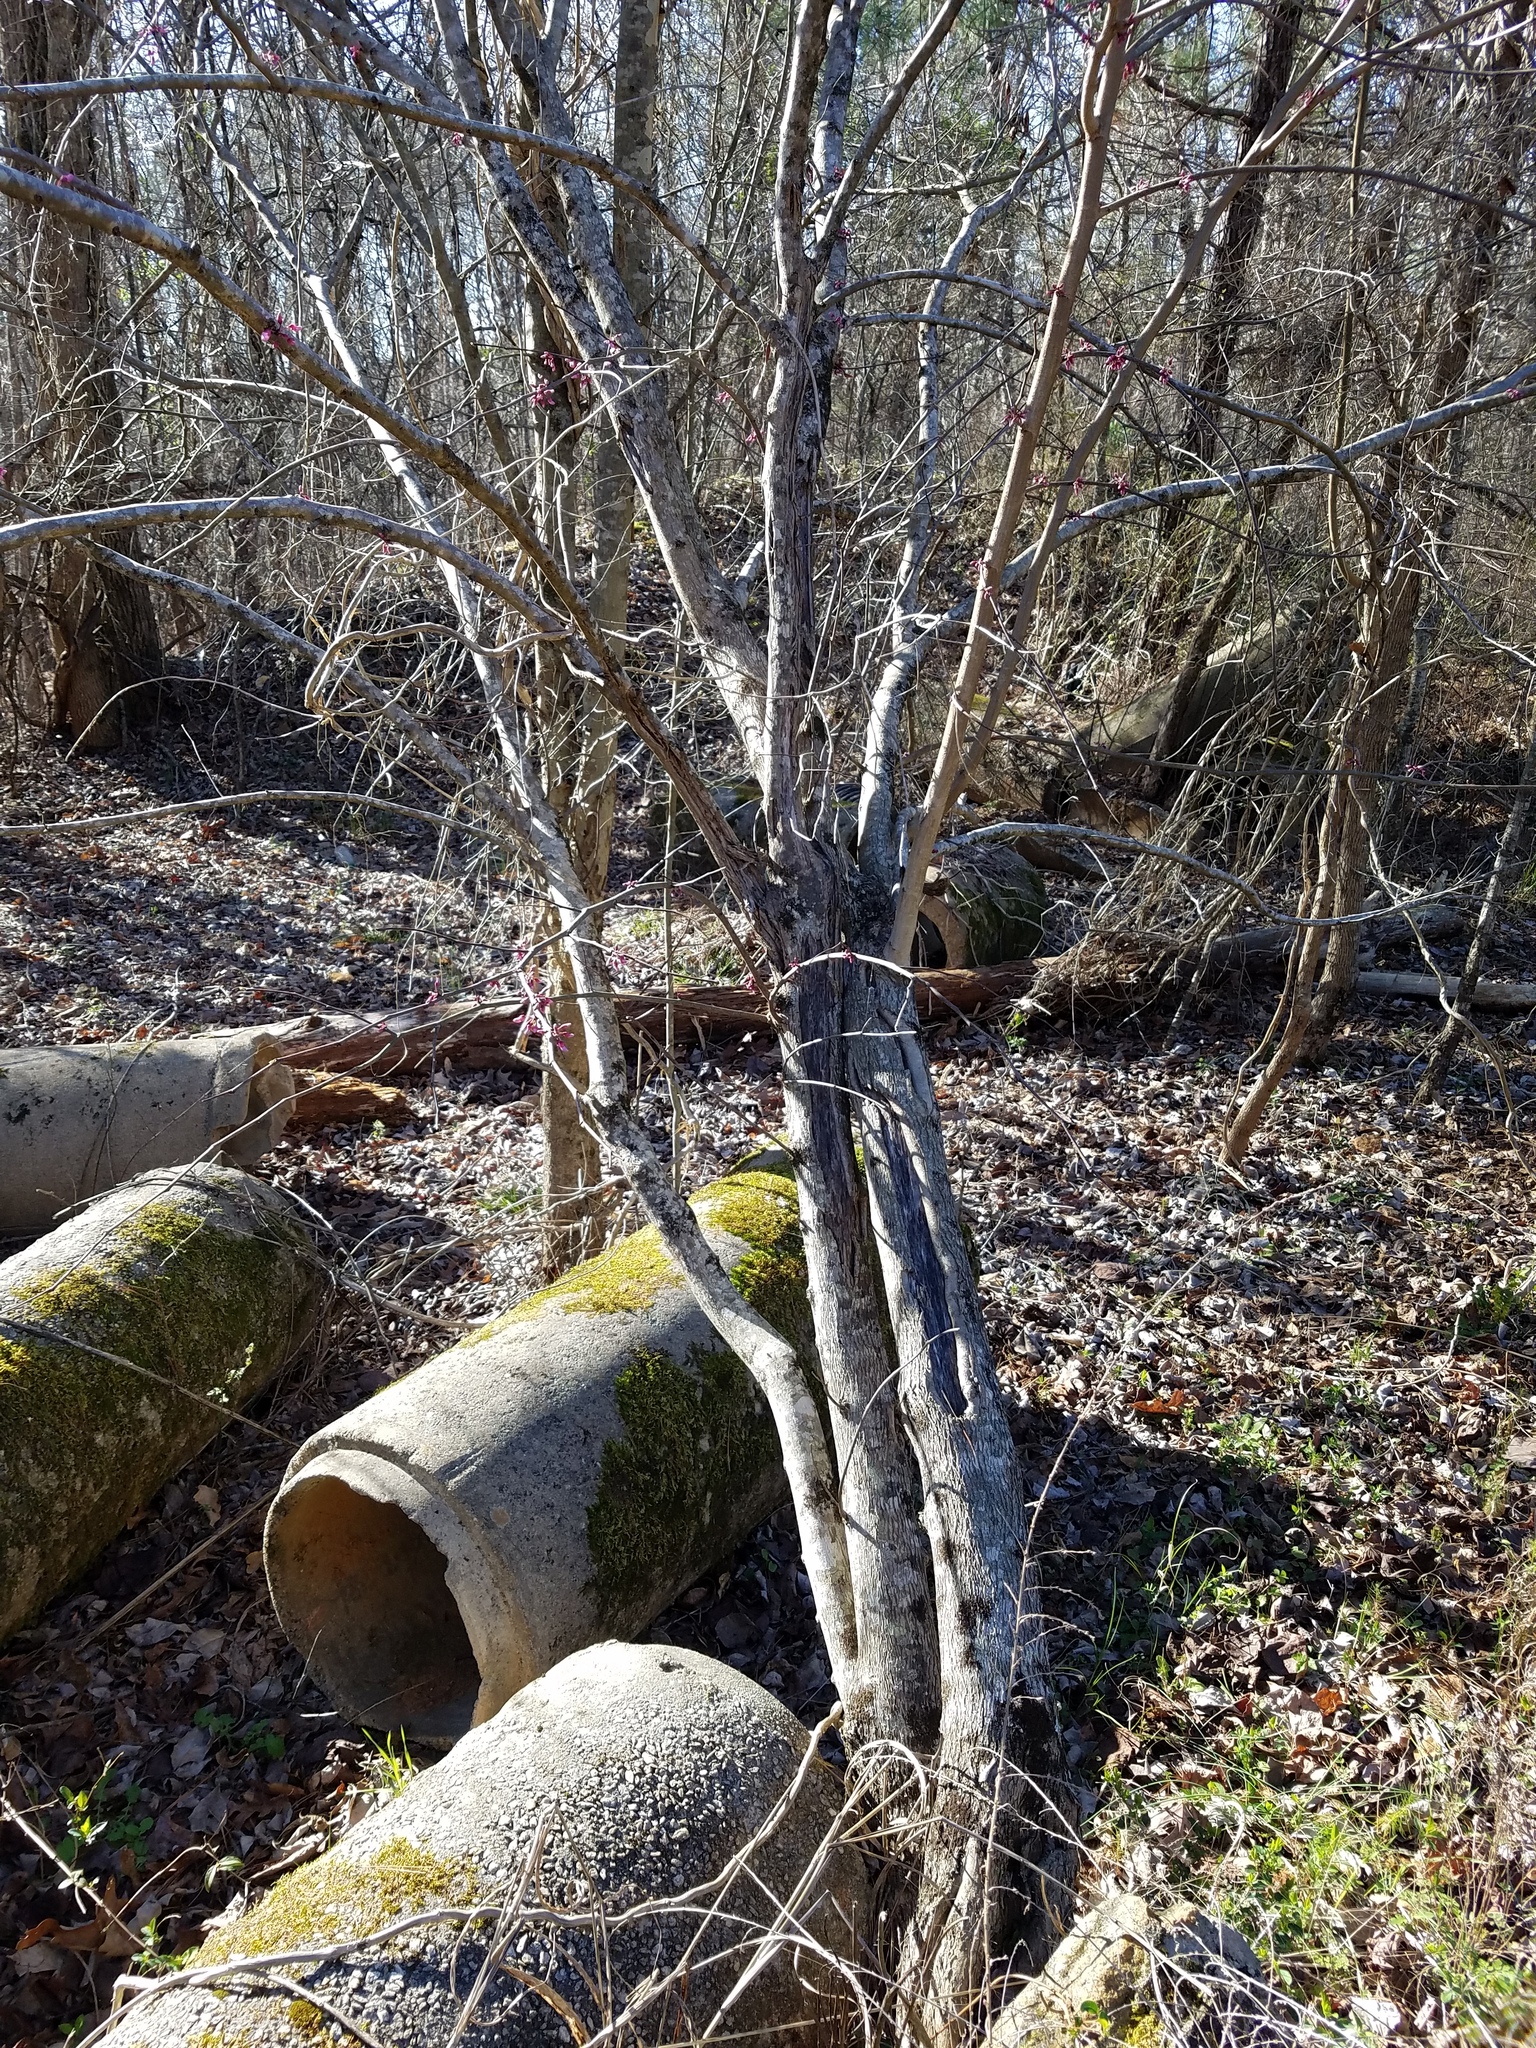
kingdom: Plantae
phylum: Tracheophyta
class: Magnoliopsida
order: Fabales
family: Fabaceae
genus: Cercis
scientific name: Cercis canadensis
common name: Eastern redbud
